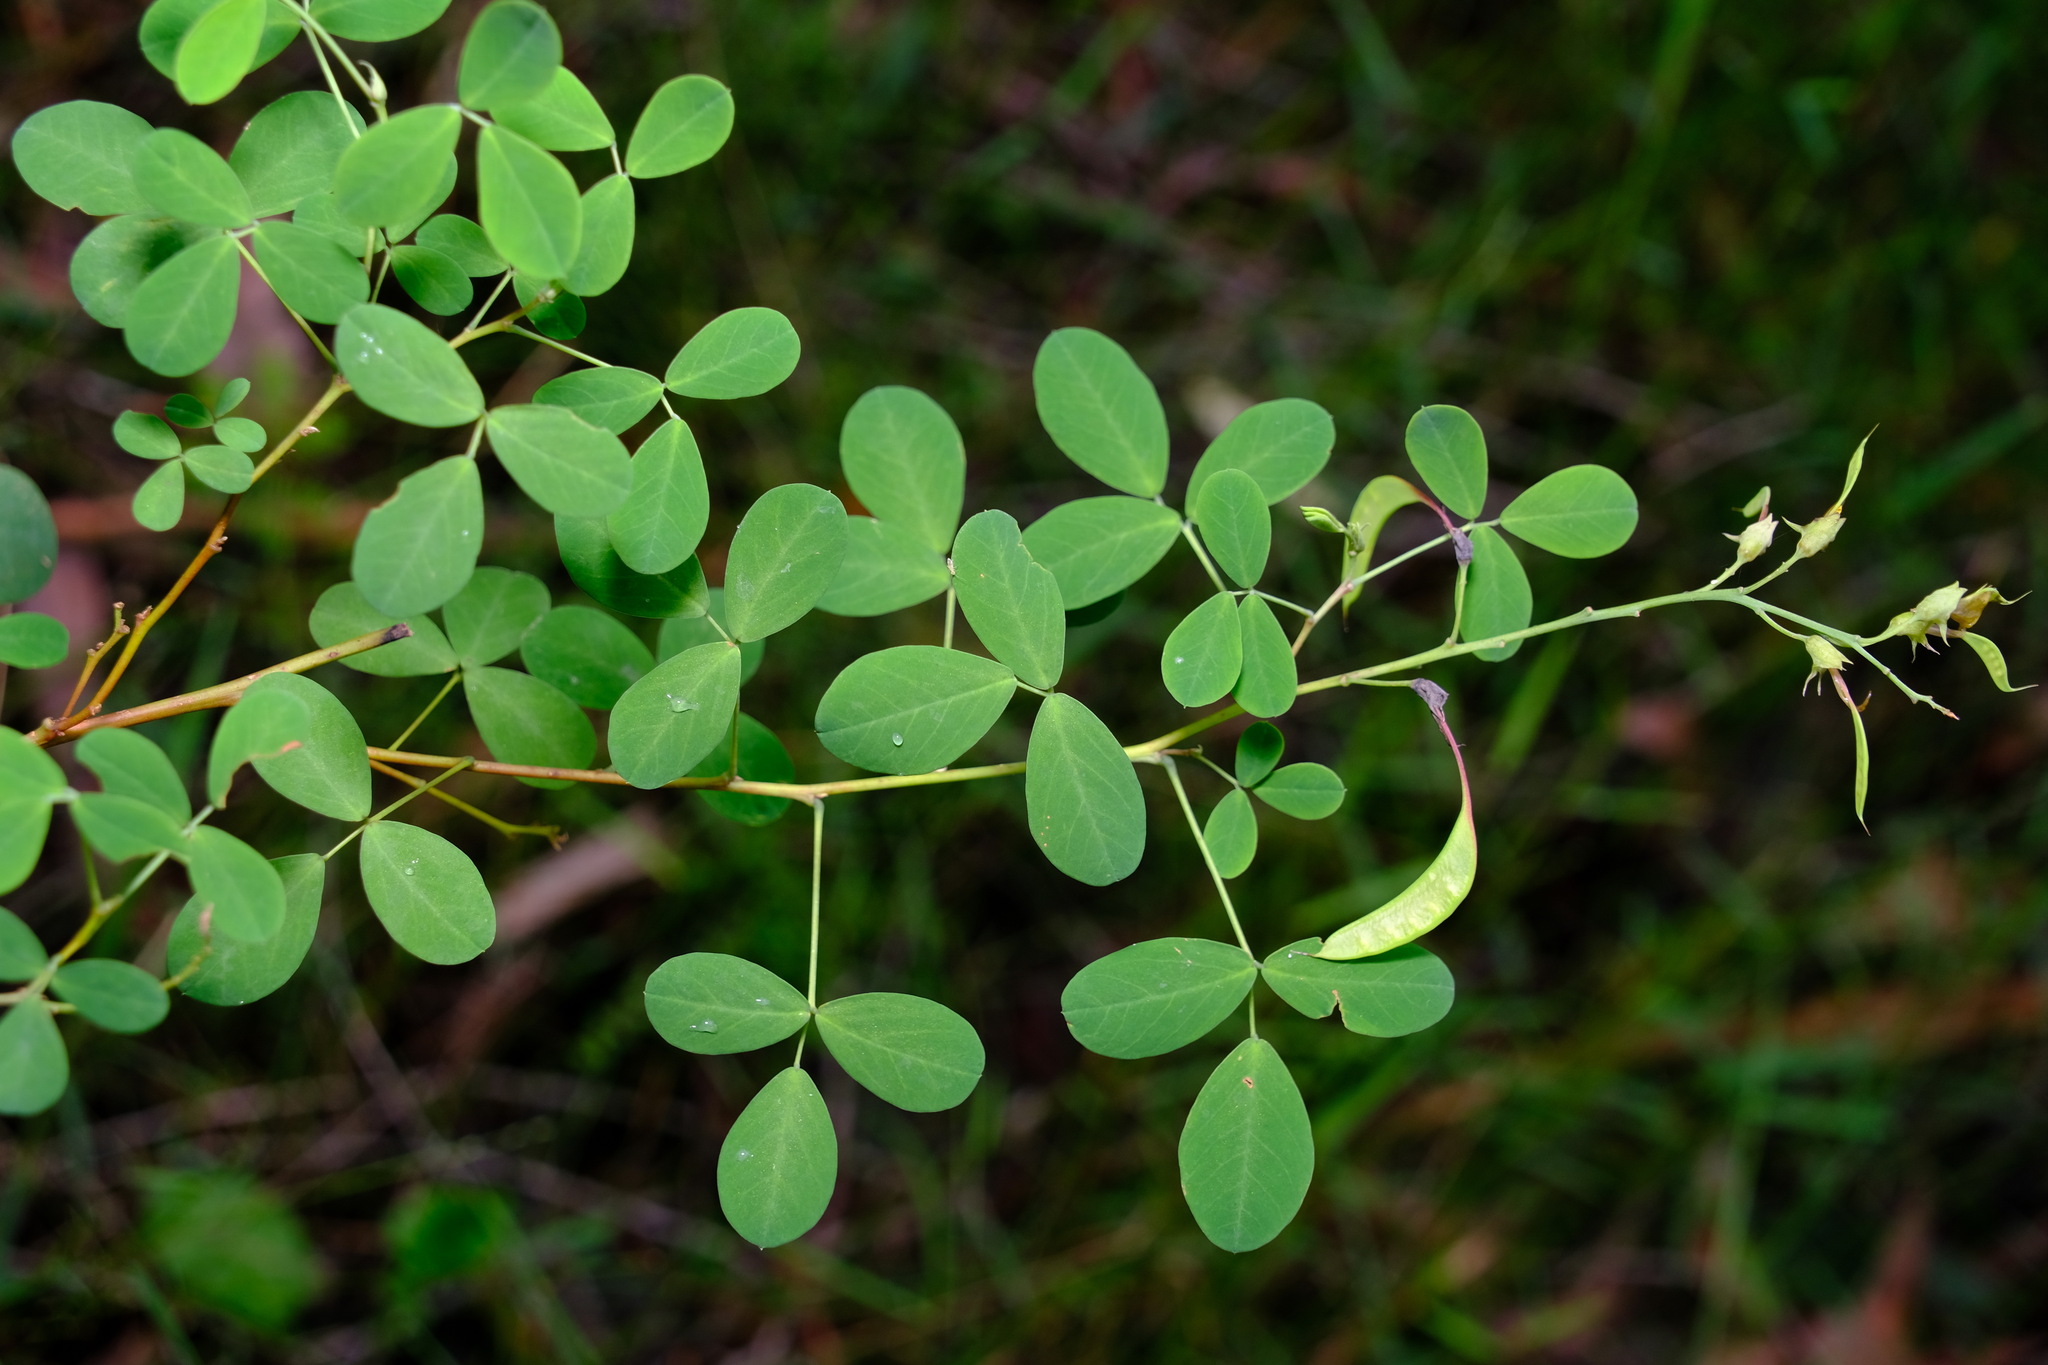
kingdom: Plantae
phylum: Tracheophyta
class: Magnoliopsida
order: Fabales
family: Fabaceae
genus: Goodia
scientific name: Goodia lotifolia
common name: Cloverleaf-poison
